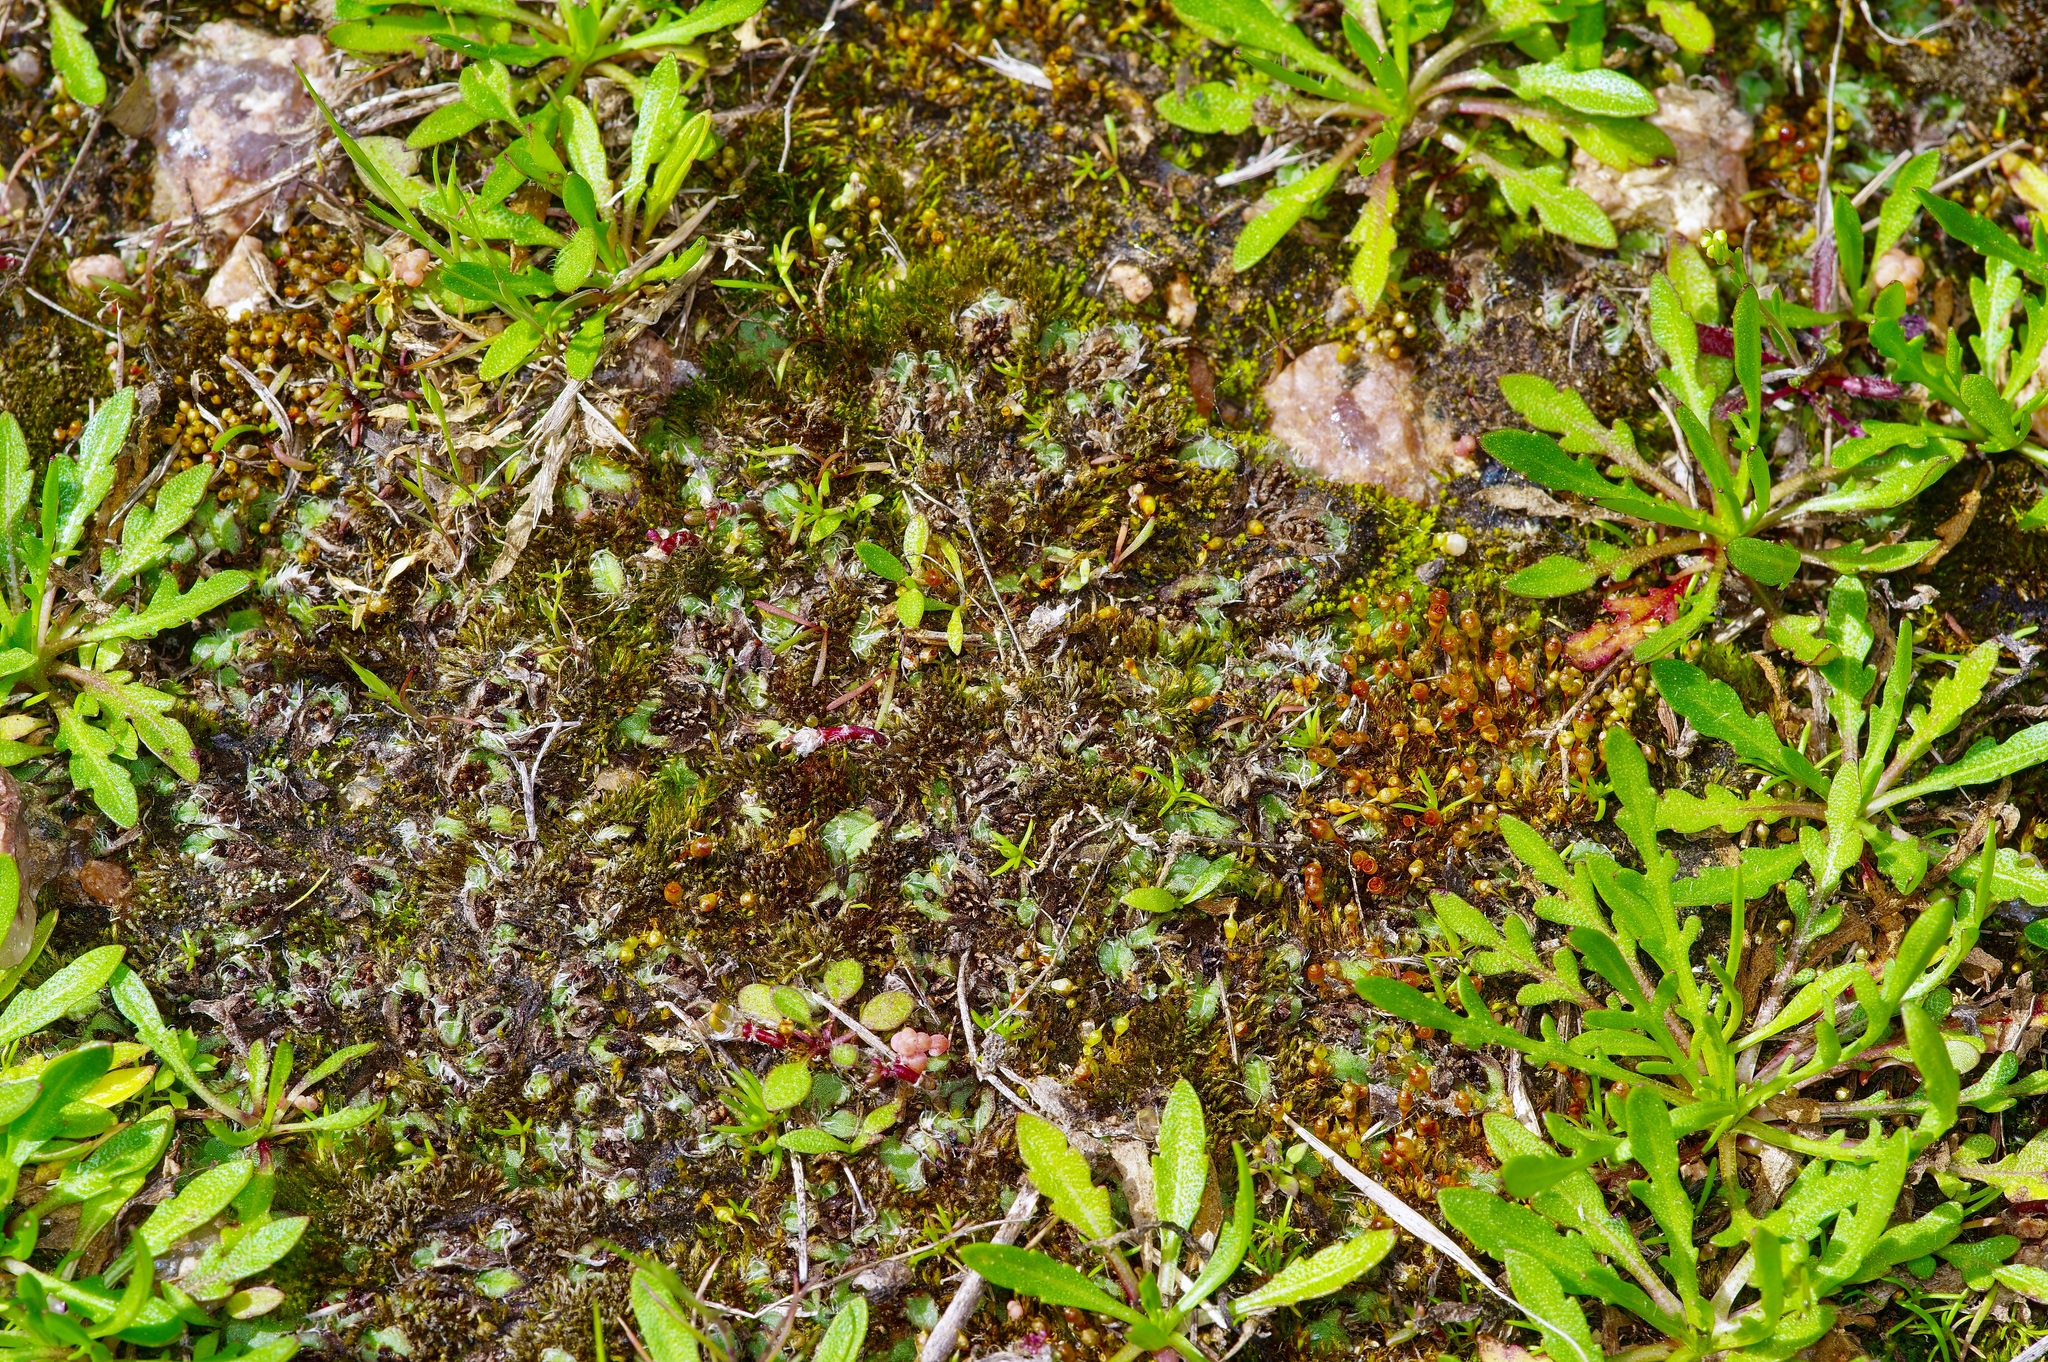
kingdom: Plantae
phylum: Marchantiophyta
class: Marchantiopsida
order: Marchantiales
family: Ricciaceae
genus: Oxymitra
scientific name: Oxymitra incrassata
